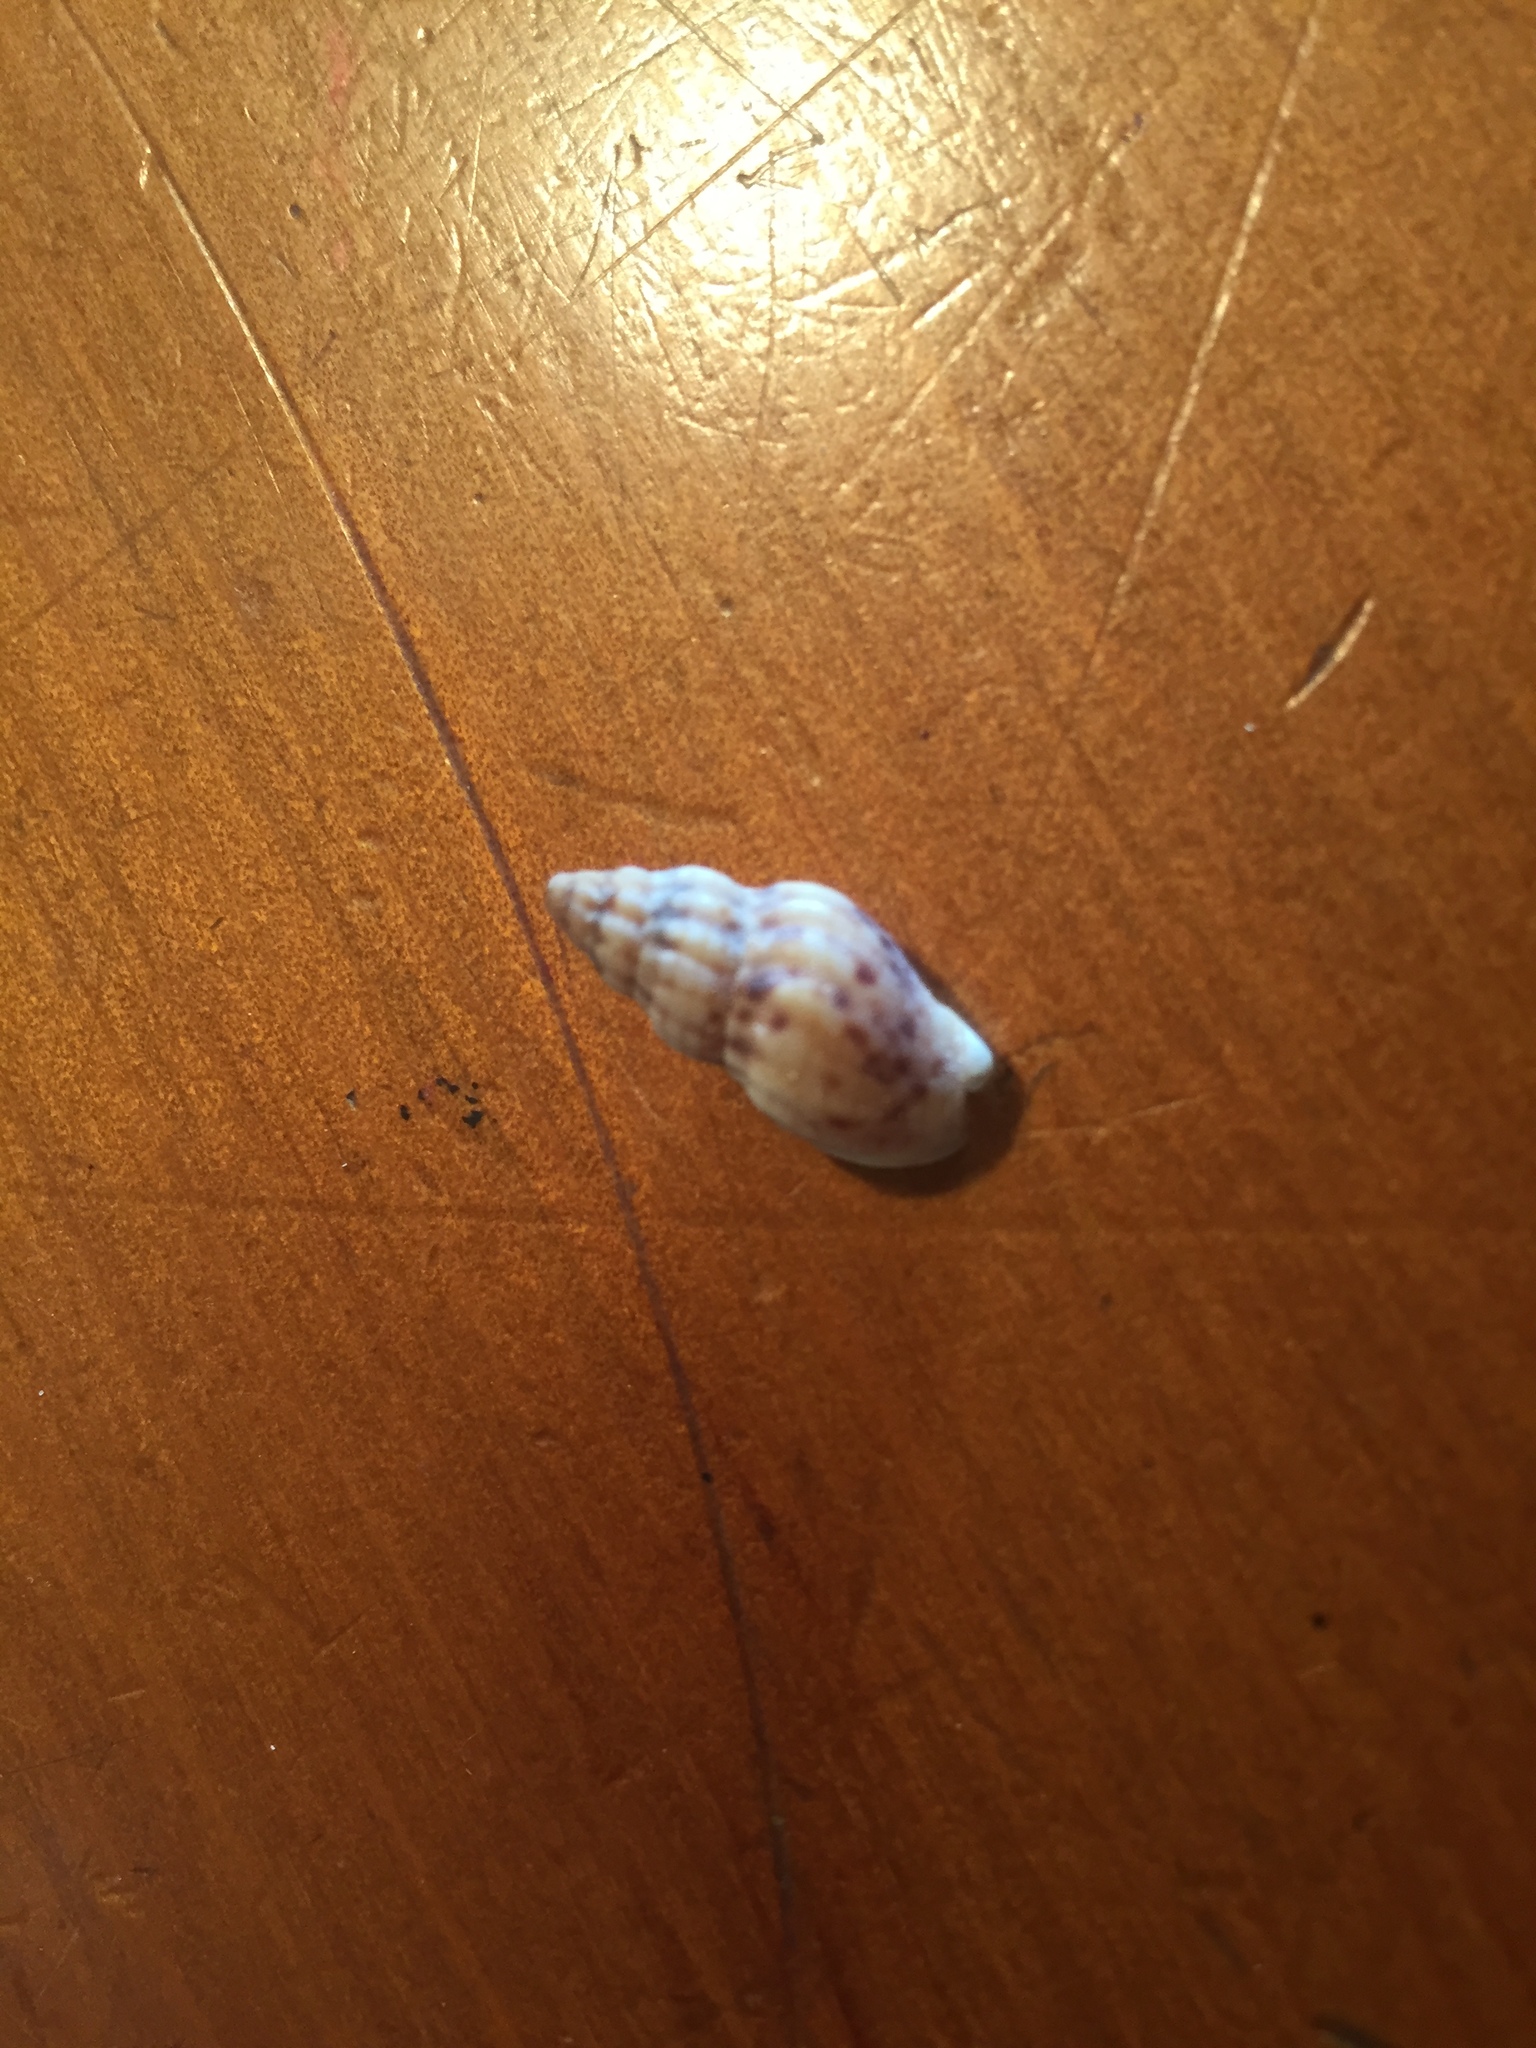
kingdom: Animalia
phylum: Mollusca
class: Gastropoda
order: Neogastropoda
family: Cominellidae
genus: Cominella
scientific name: Cominella quoyana
